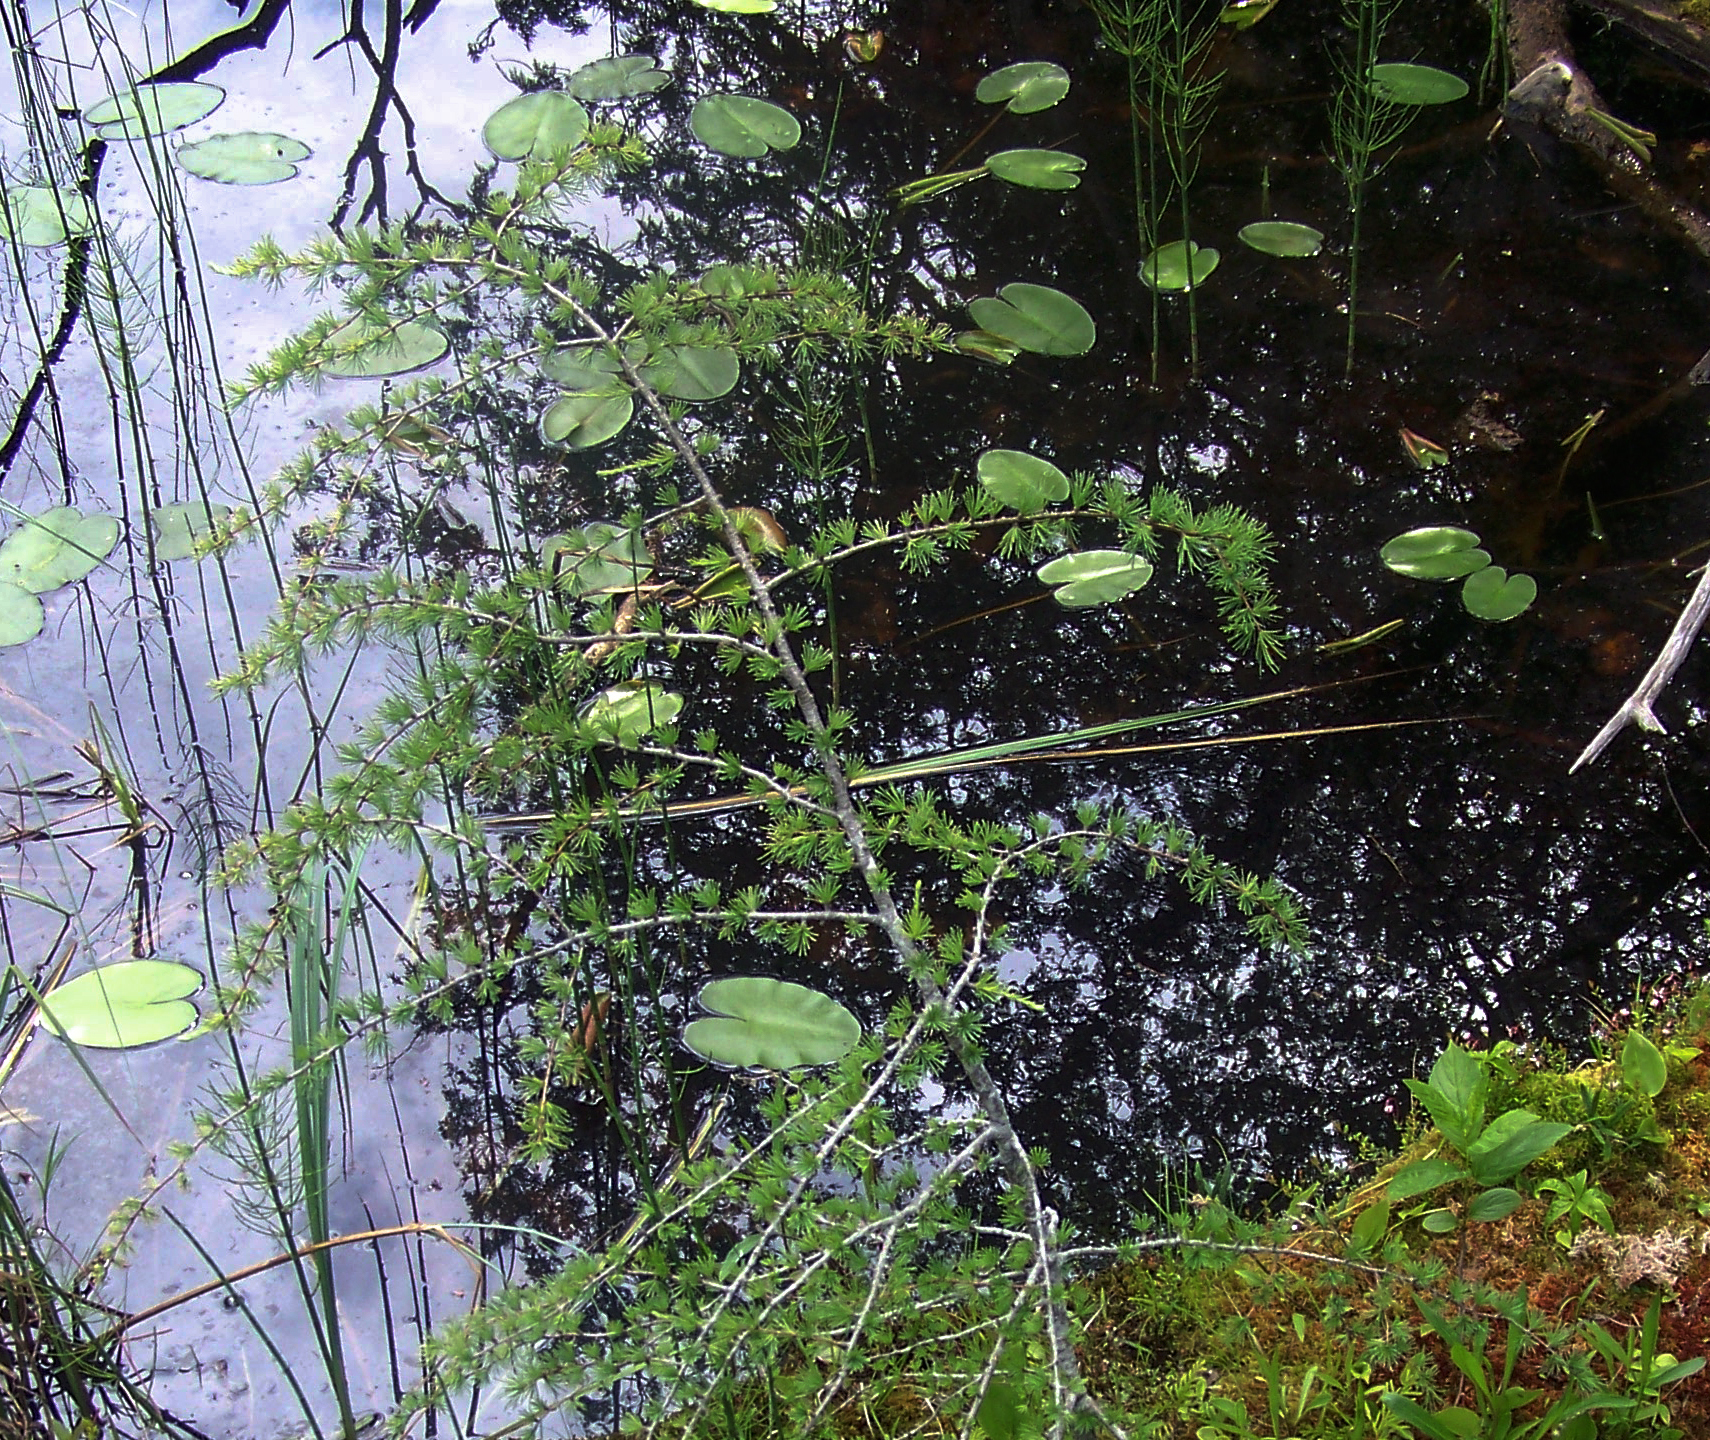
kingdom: Plantae
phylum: Tracheophyta
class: Pinopsida
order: Pinales
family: Pinaceae
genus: Larix
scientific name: Larix laricina
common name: American larch
